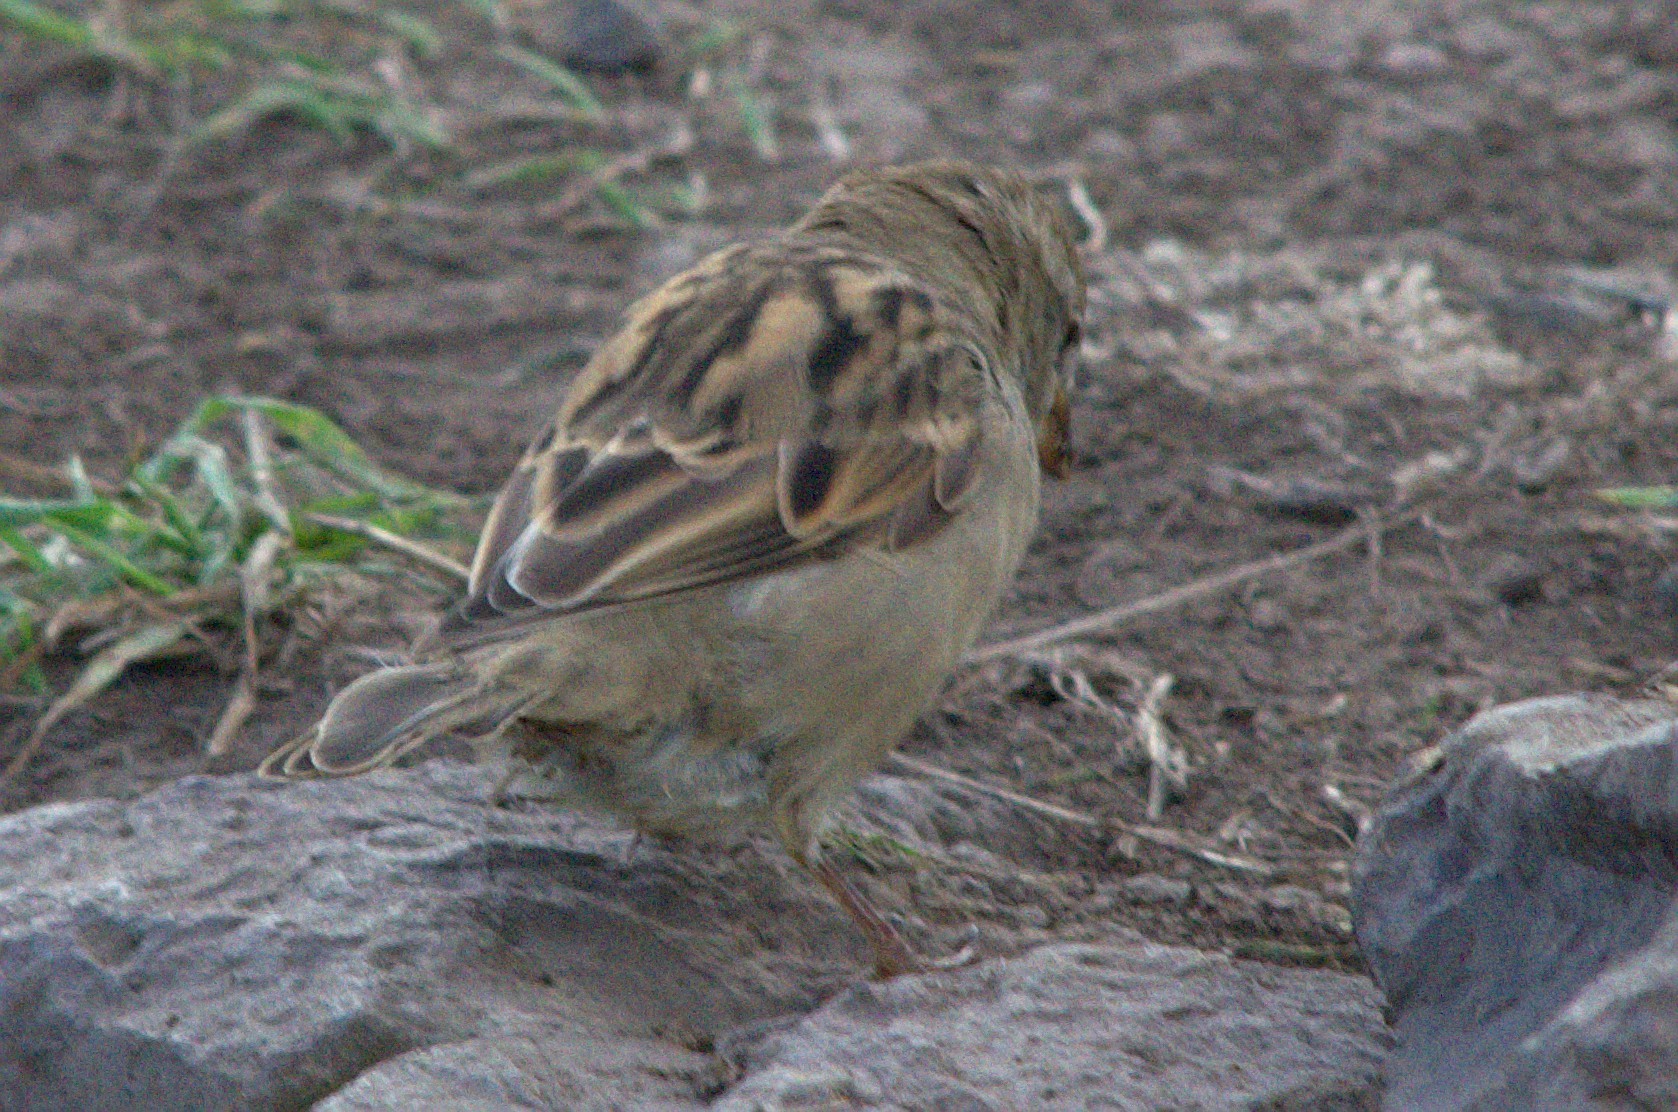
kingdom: Animalia
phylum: Chordata
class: Aves
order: Passeriformes
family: Passeridae
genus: Passer
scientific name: Passer domesticus
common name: House sparrow
